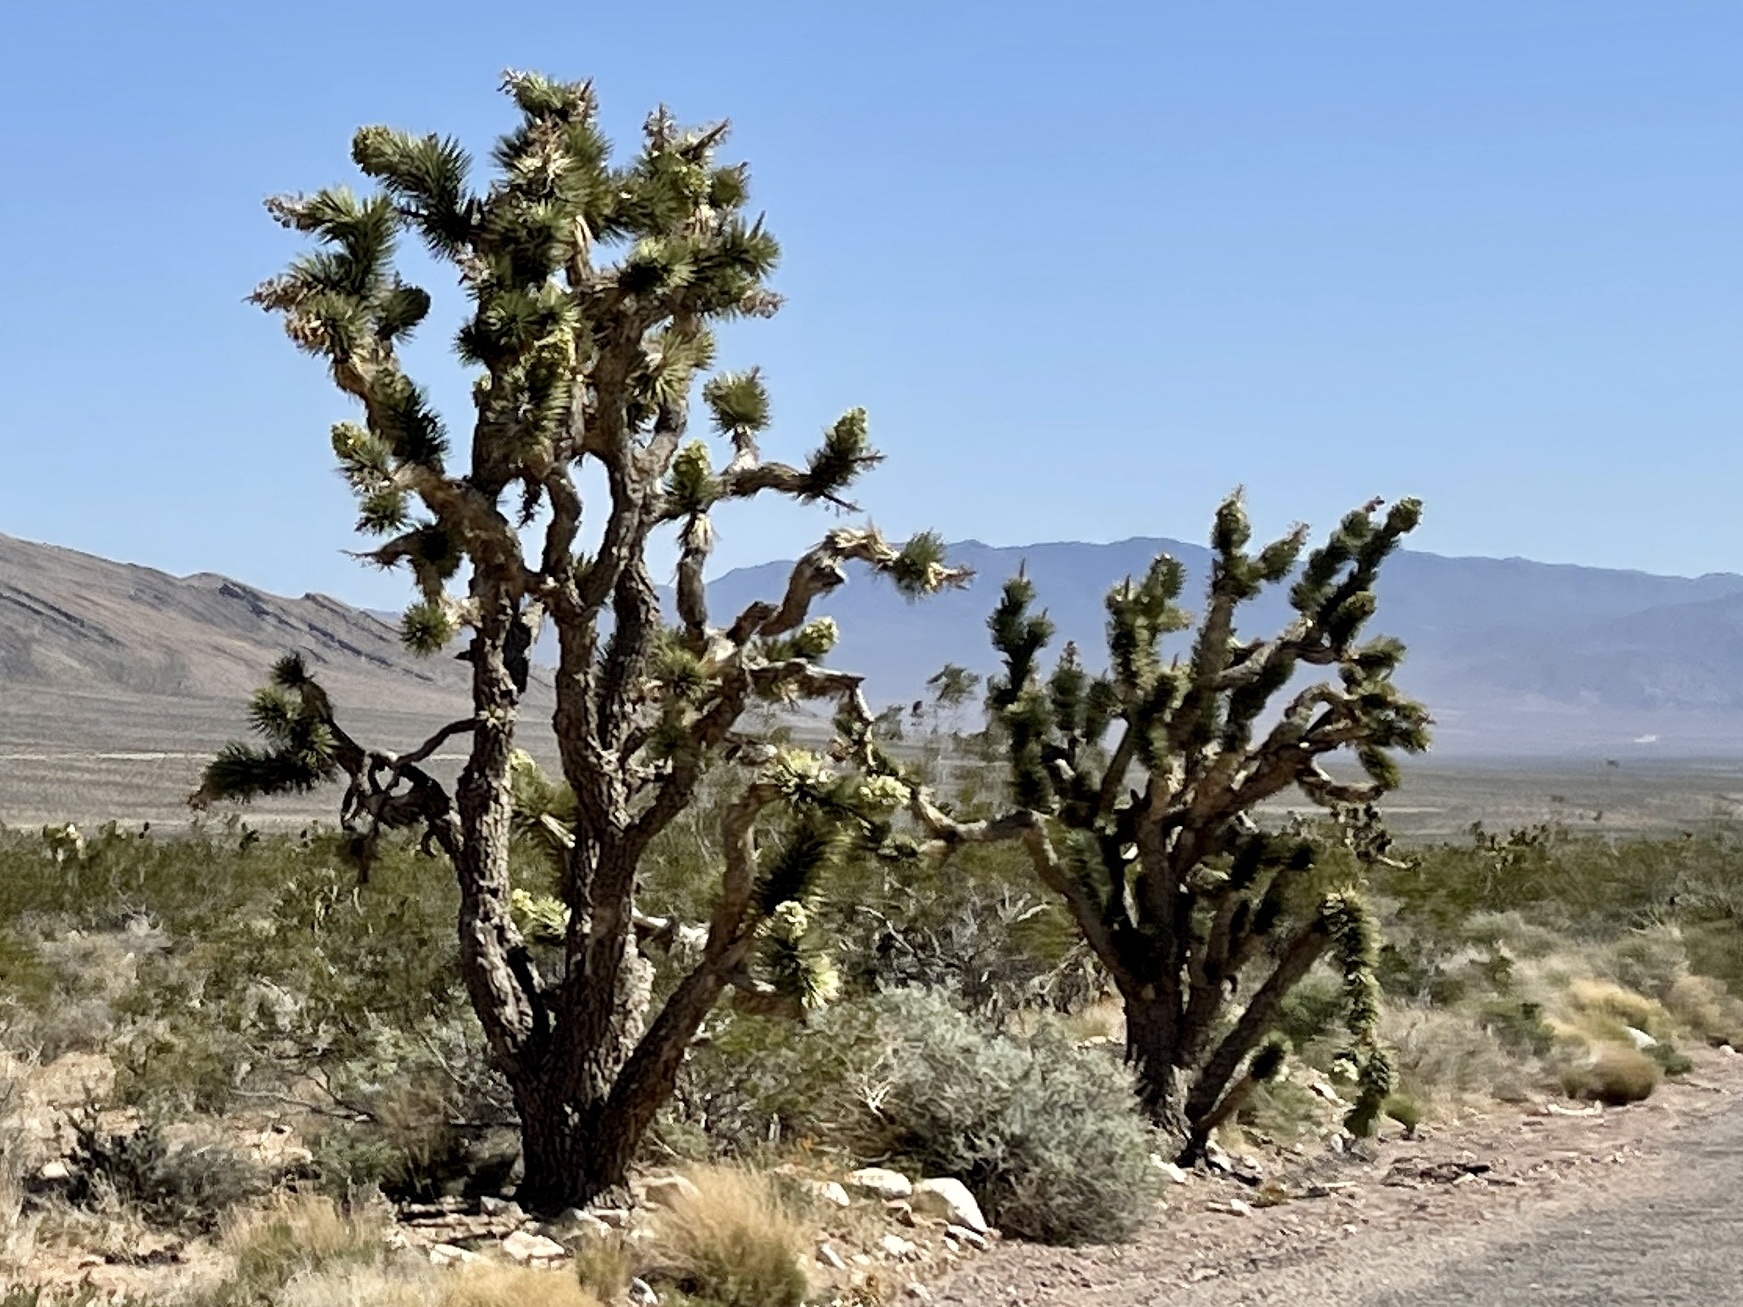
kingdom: Plantae
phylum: Tracheophyta
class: Liliopsida
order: Asparagales
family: Asparagaceae
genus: Yucca
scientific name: Yucca brevifolia
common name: Joshua tree
